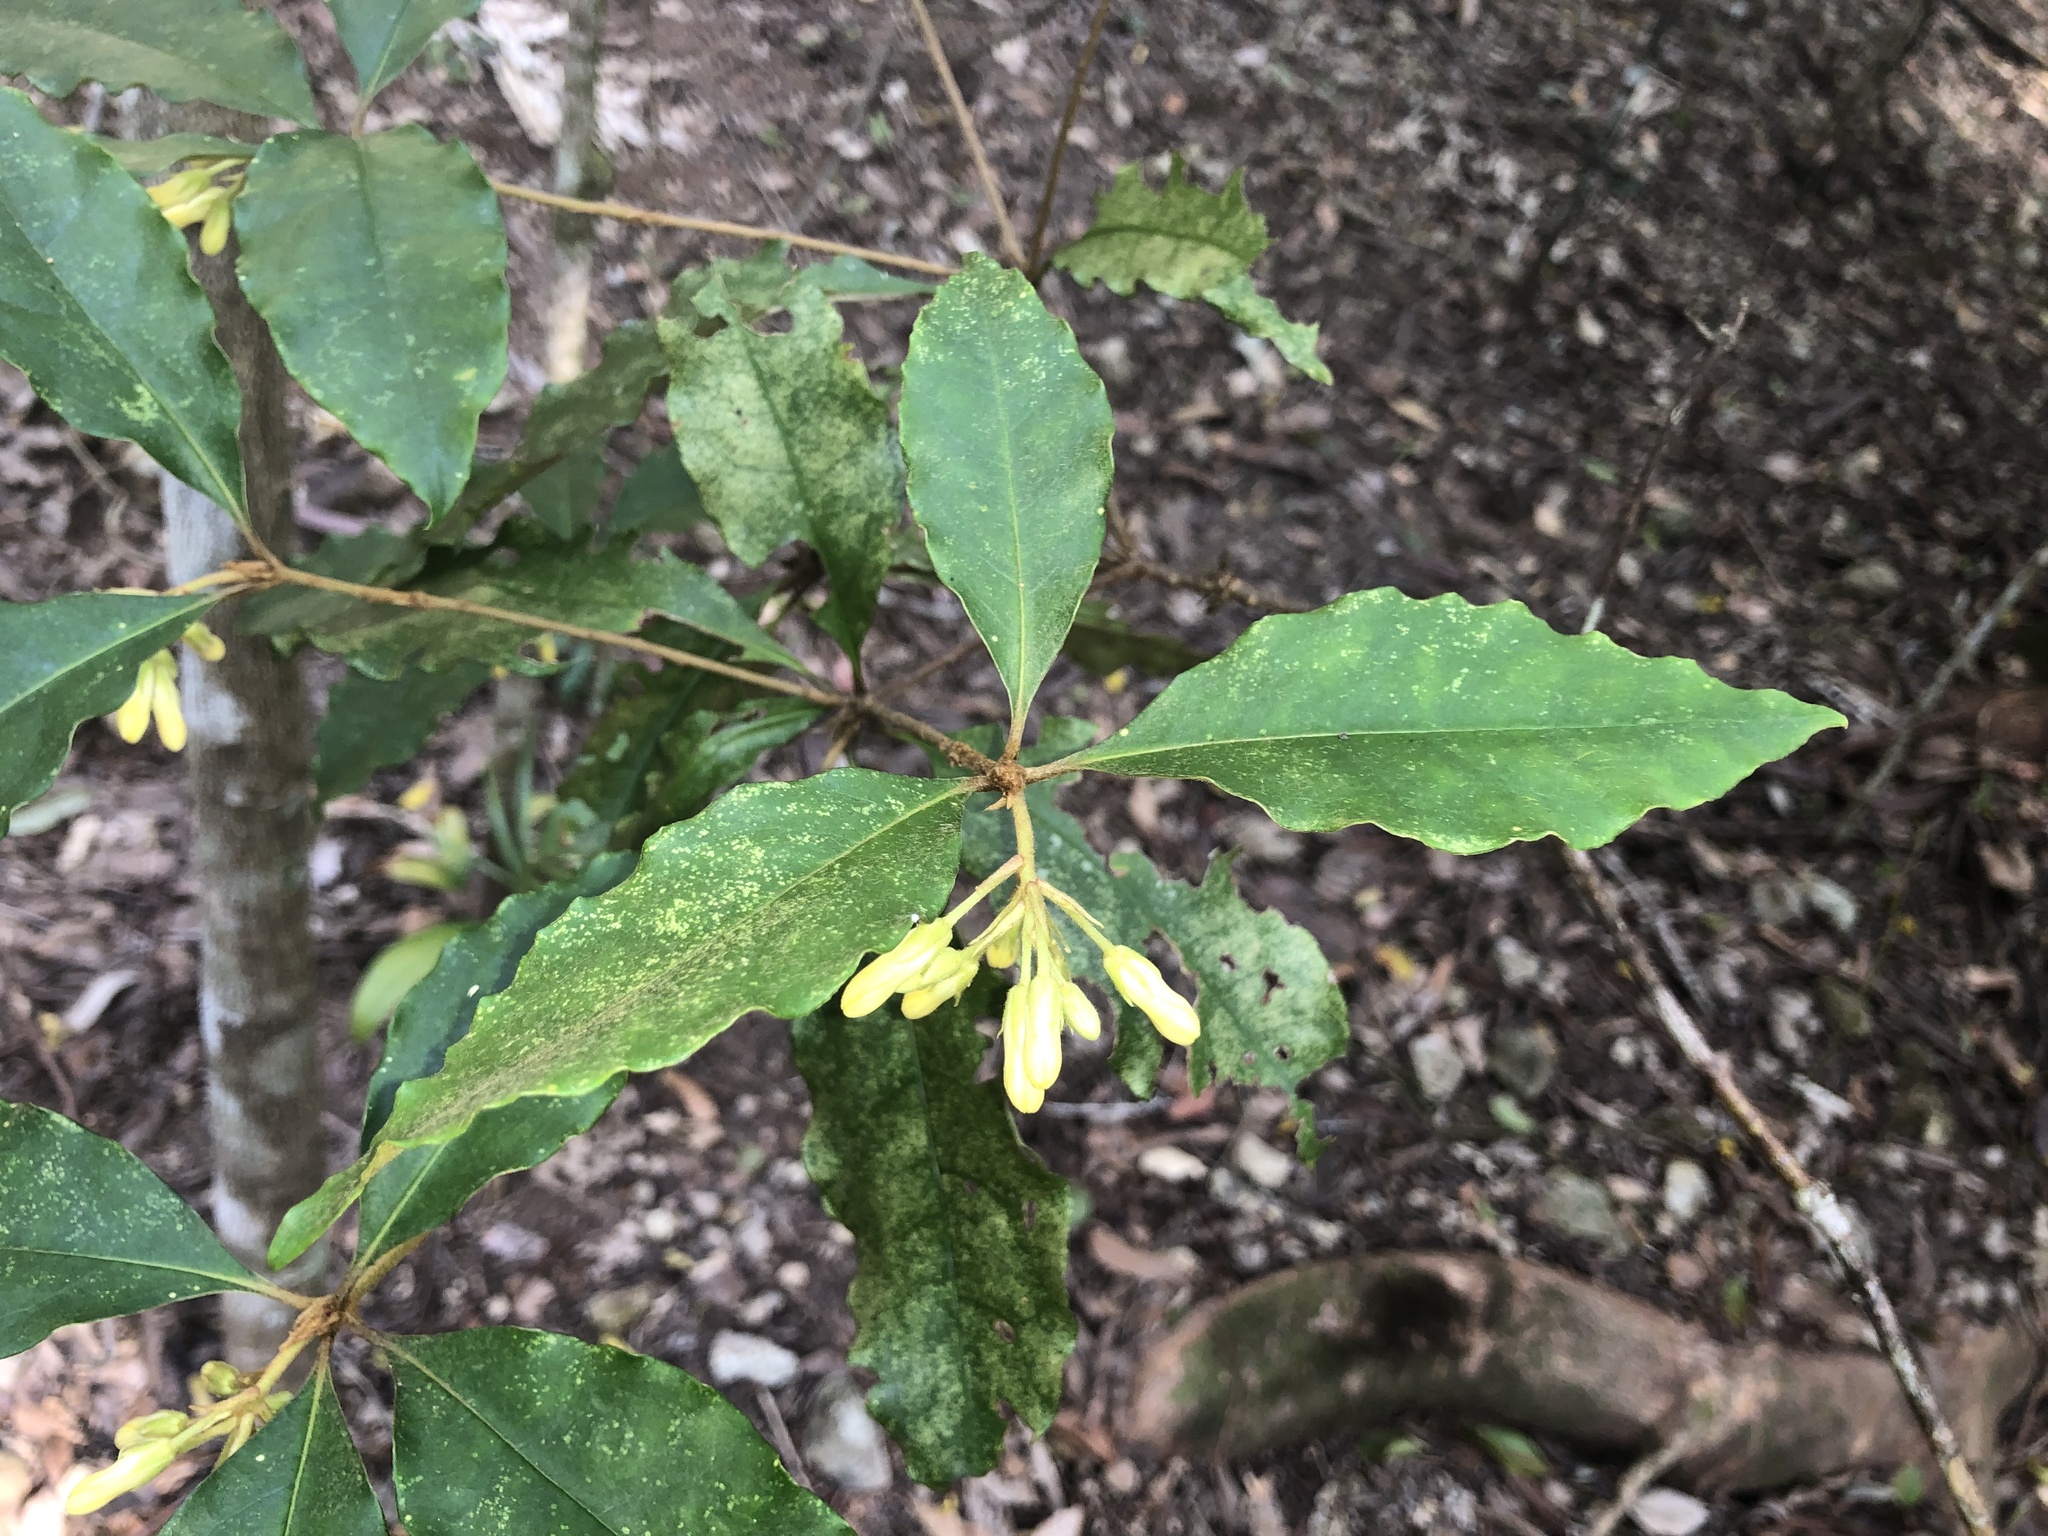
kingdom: Plantae
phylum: Tracheophyta
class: Magnoliopsida
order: Apiales
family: Pittosporaceae
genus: Pittosporum
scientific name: Pittosporum revolutum
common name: Brisbane-laurel
